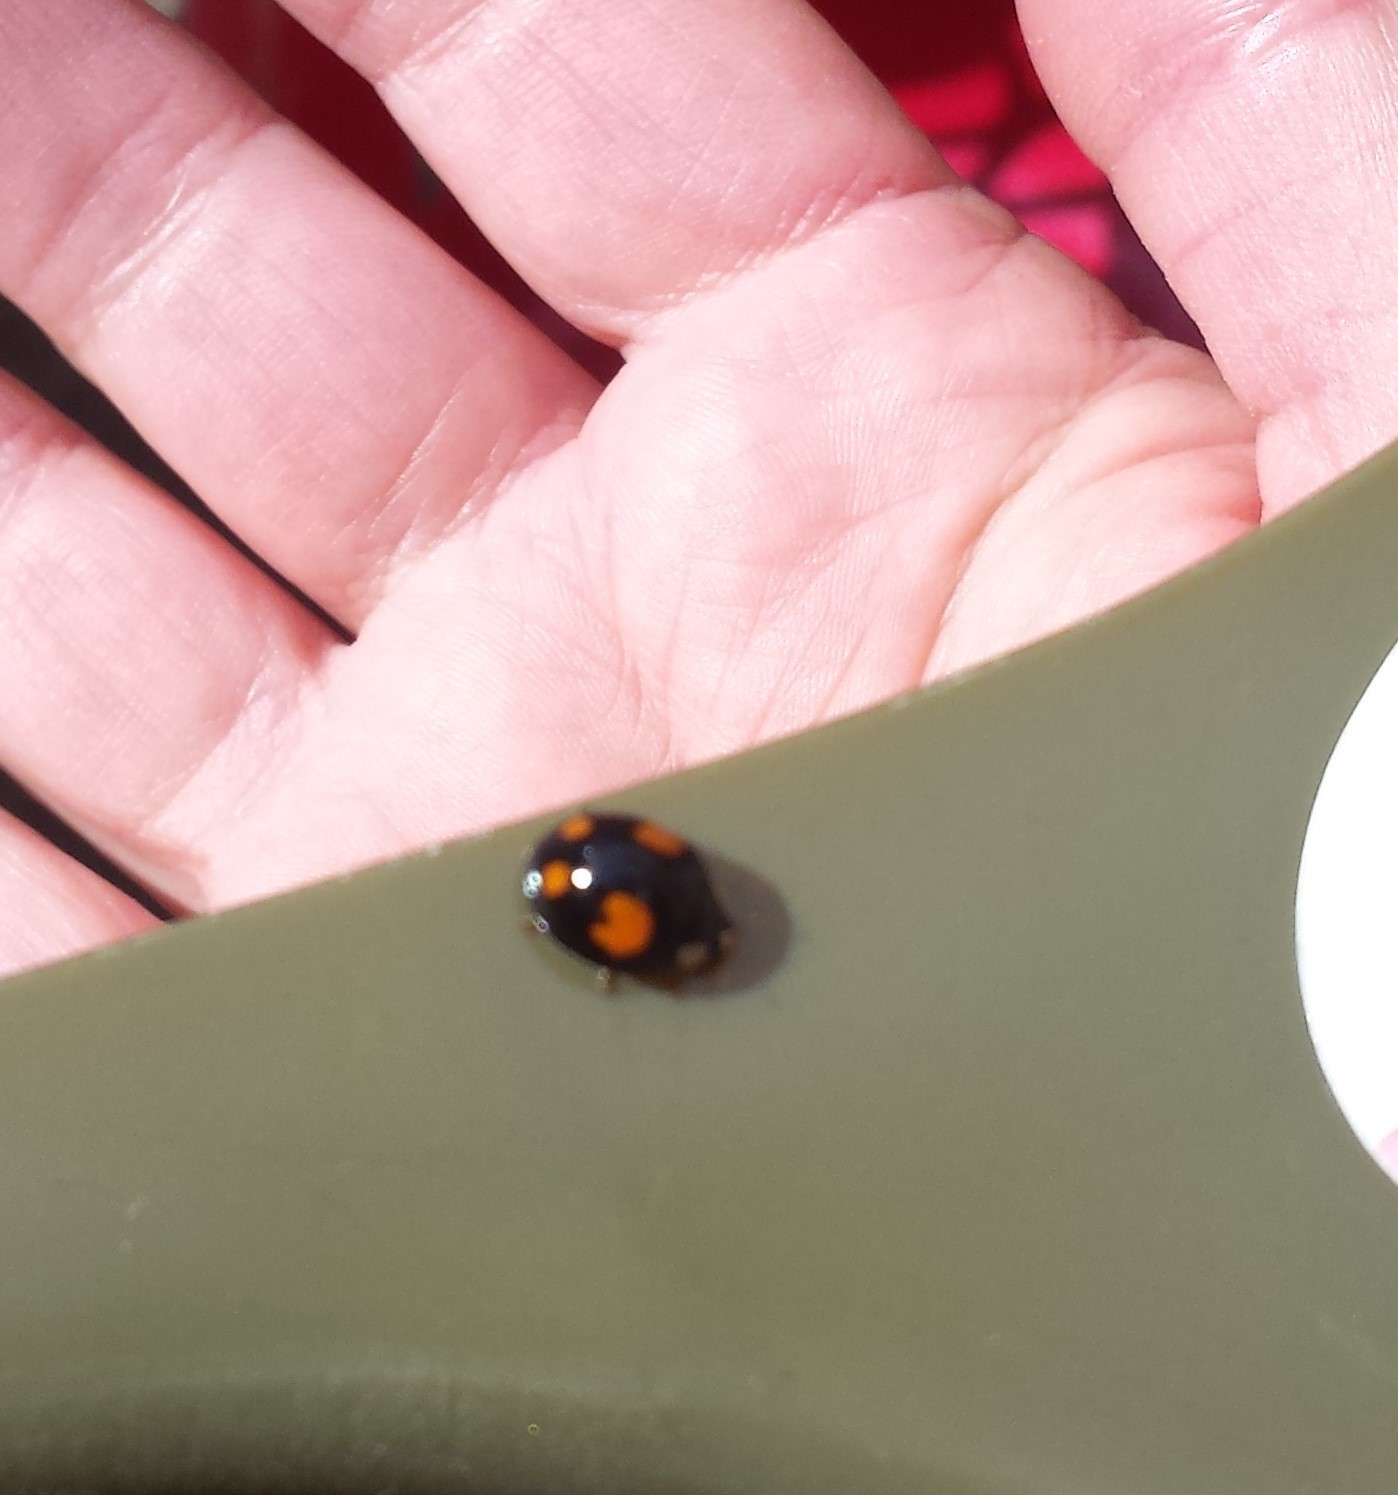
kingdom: Animalia
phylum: Arthropoda
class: Insecta
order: Coleoptera
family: Coccinellidae
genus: Harmonia
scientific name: Harmonia axyridis
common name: Harlequin ladybird
